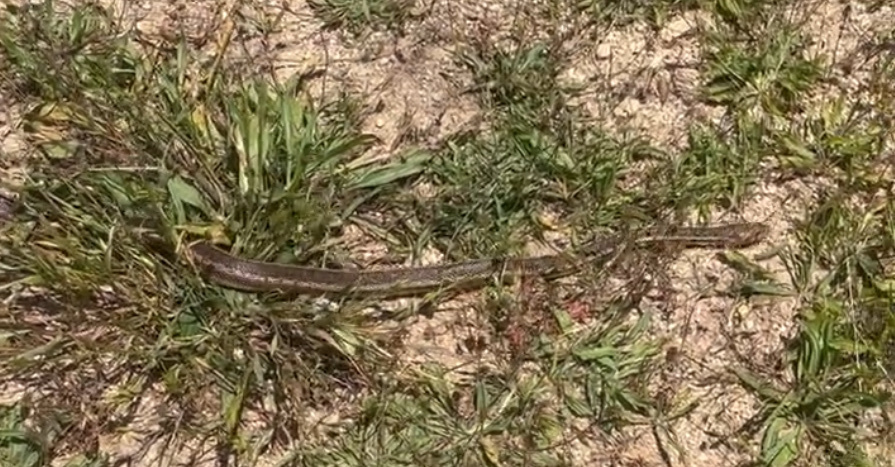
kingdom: Animalia
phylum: Chordata
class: Squamata
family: Colubridae
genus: Pituophis
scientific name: Pituophis catenifer
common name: Gopher snake
